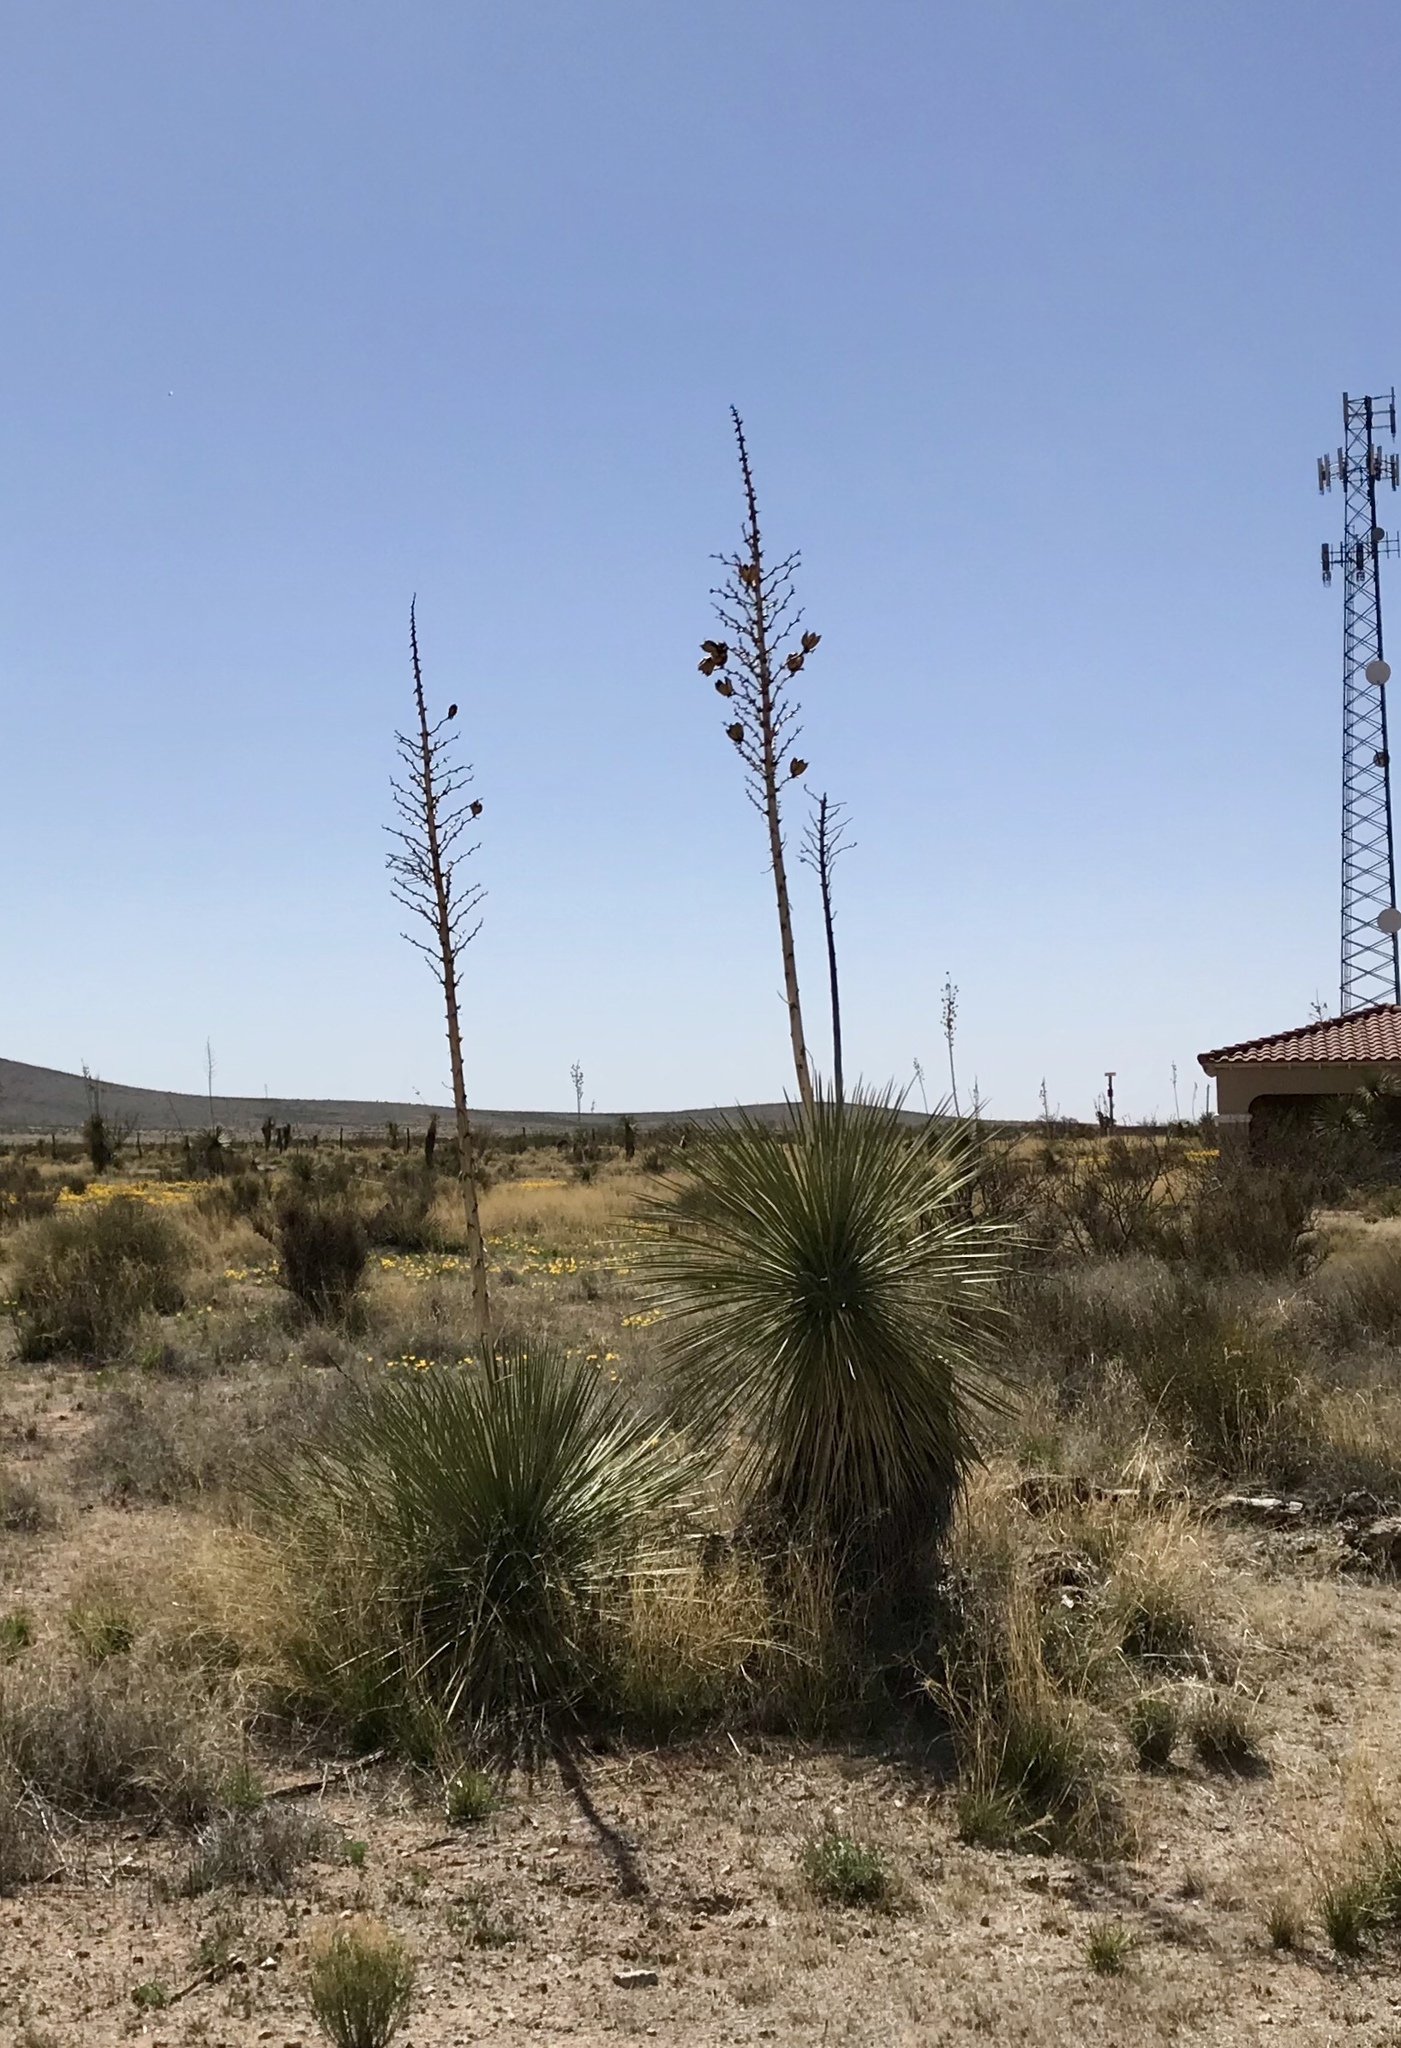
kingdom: Plantae
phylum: Tracheophyta
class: Liliopsida
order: Asparagales
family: Asparagaceae
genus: Yucca
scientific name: Yucca elata
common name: Palmella
